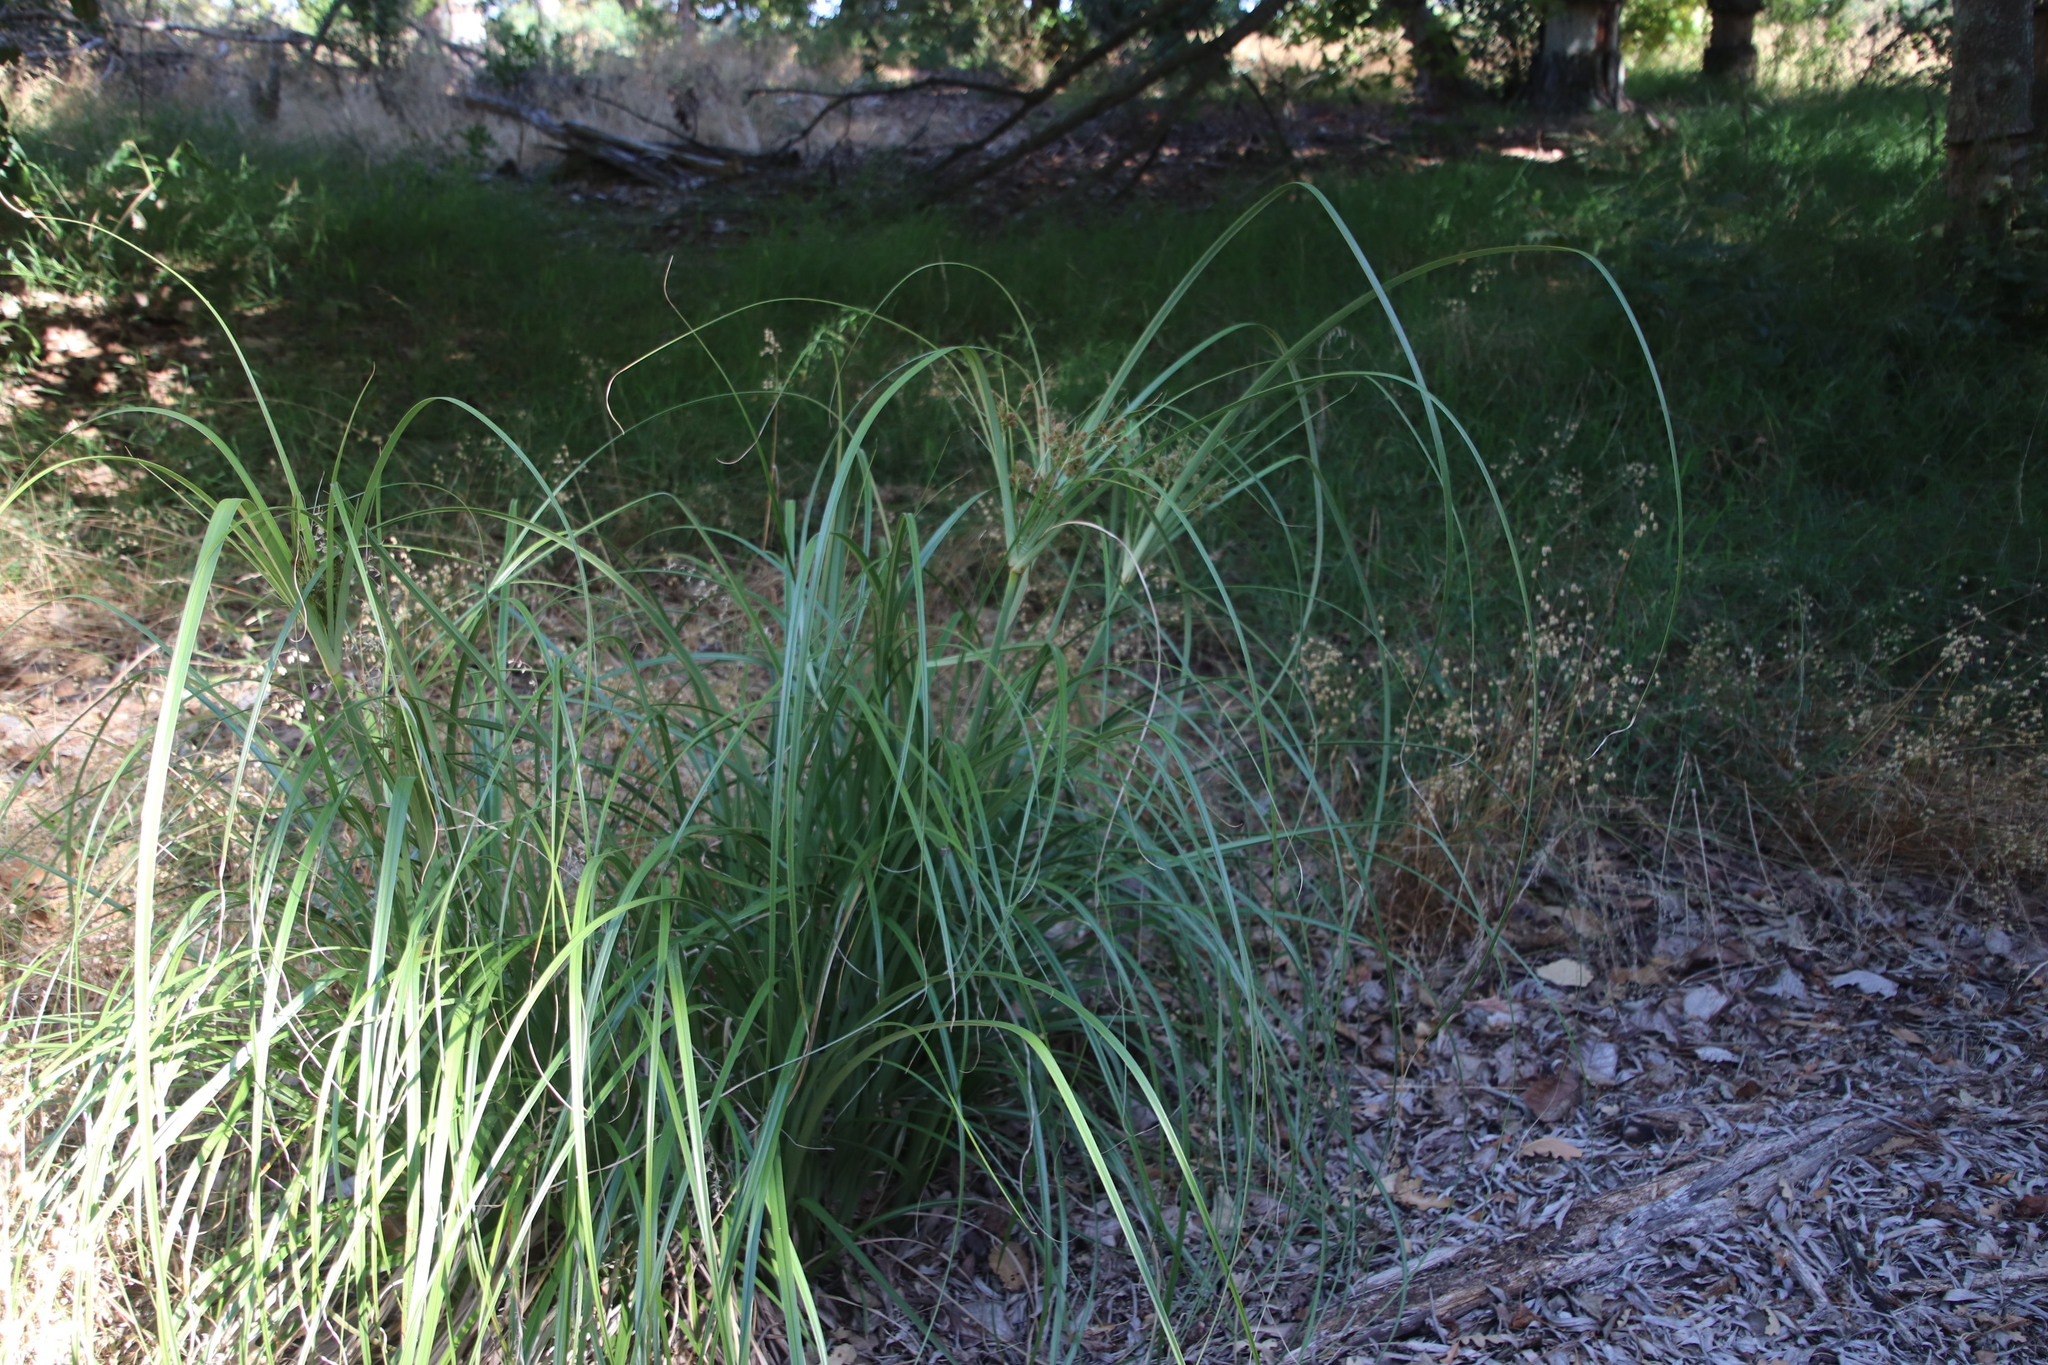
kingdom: Plantae
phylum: Tracheophyta
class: Liliopsida
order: Poales
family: Cyperaceae
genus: Cyperus
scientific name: Cyperus thunbergii
